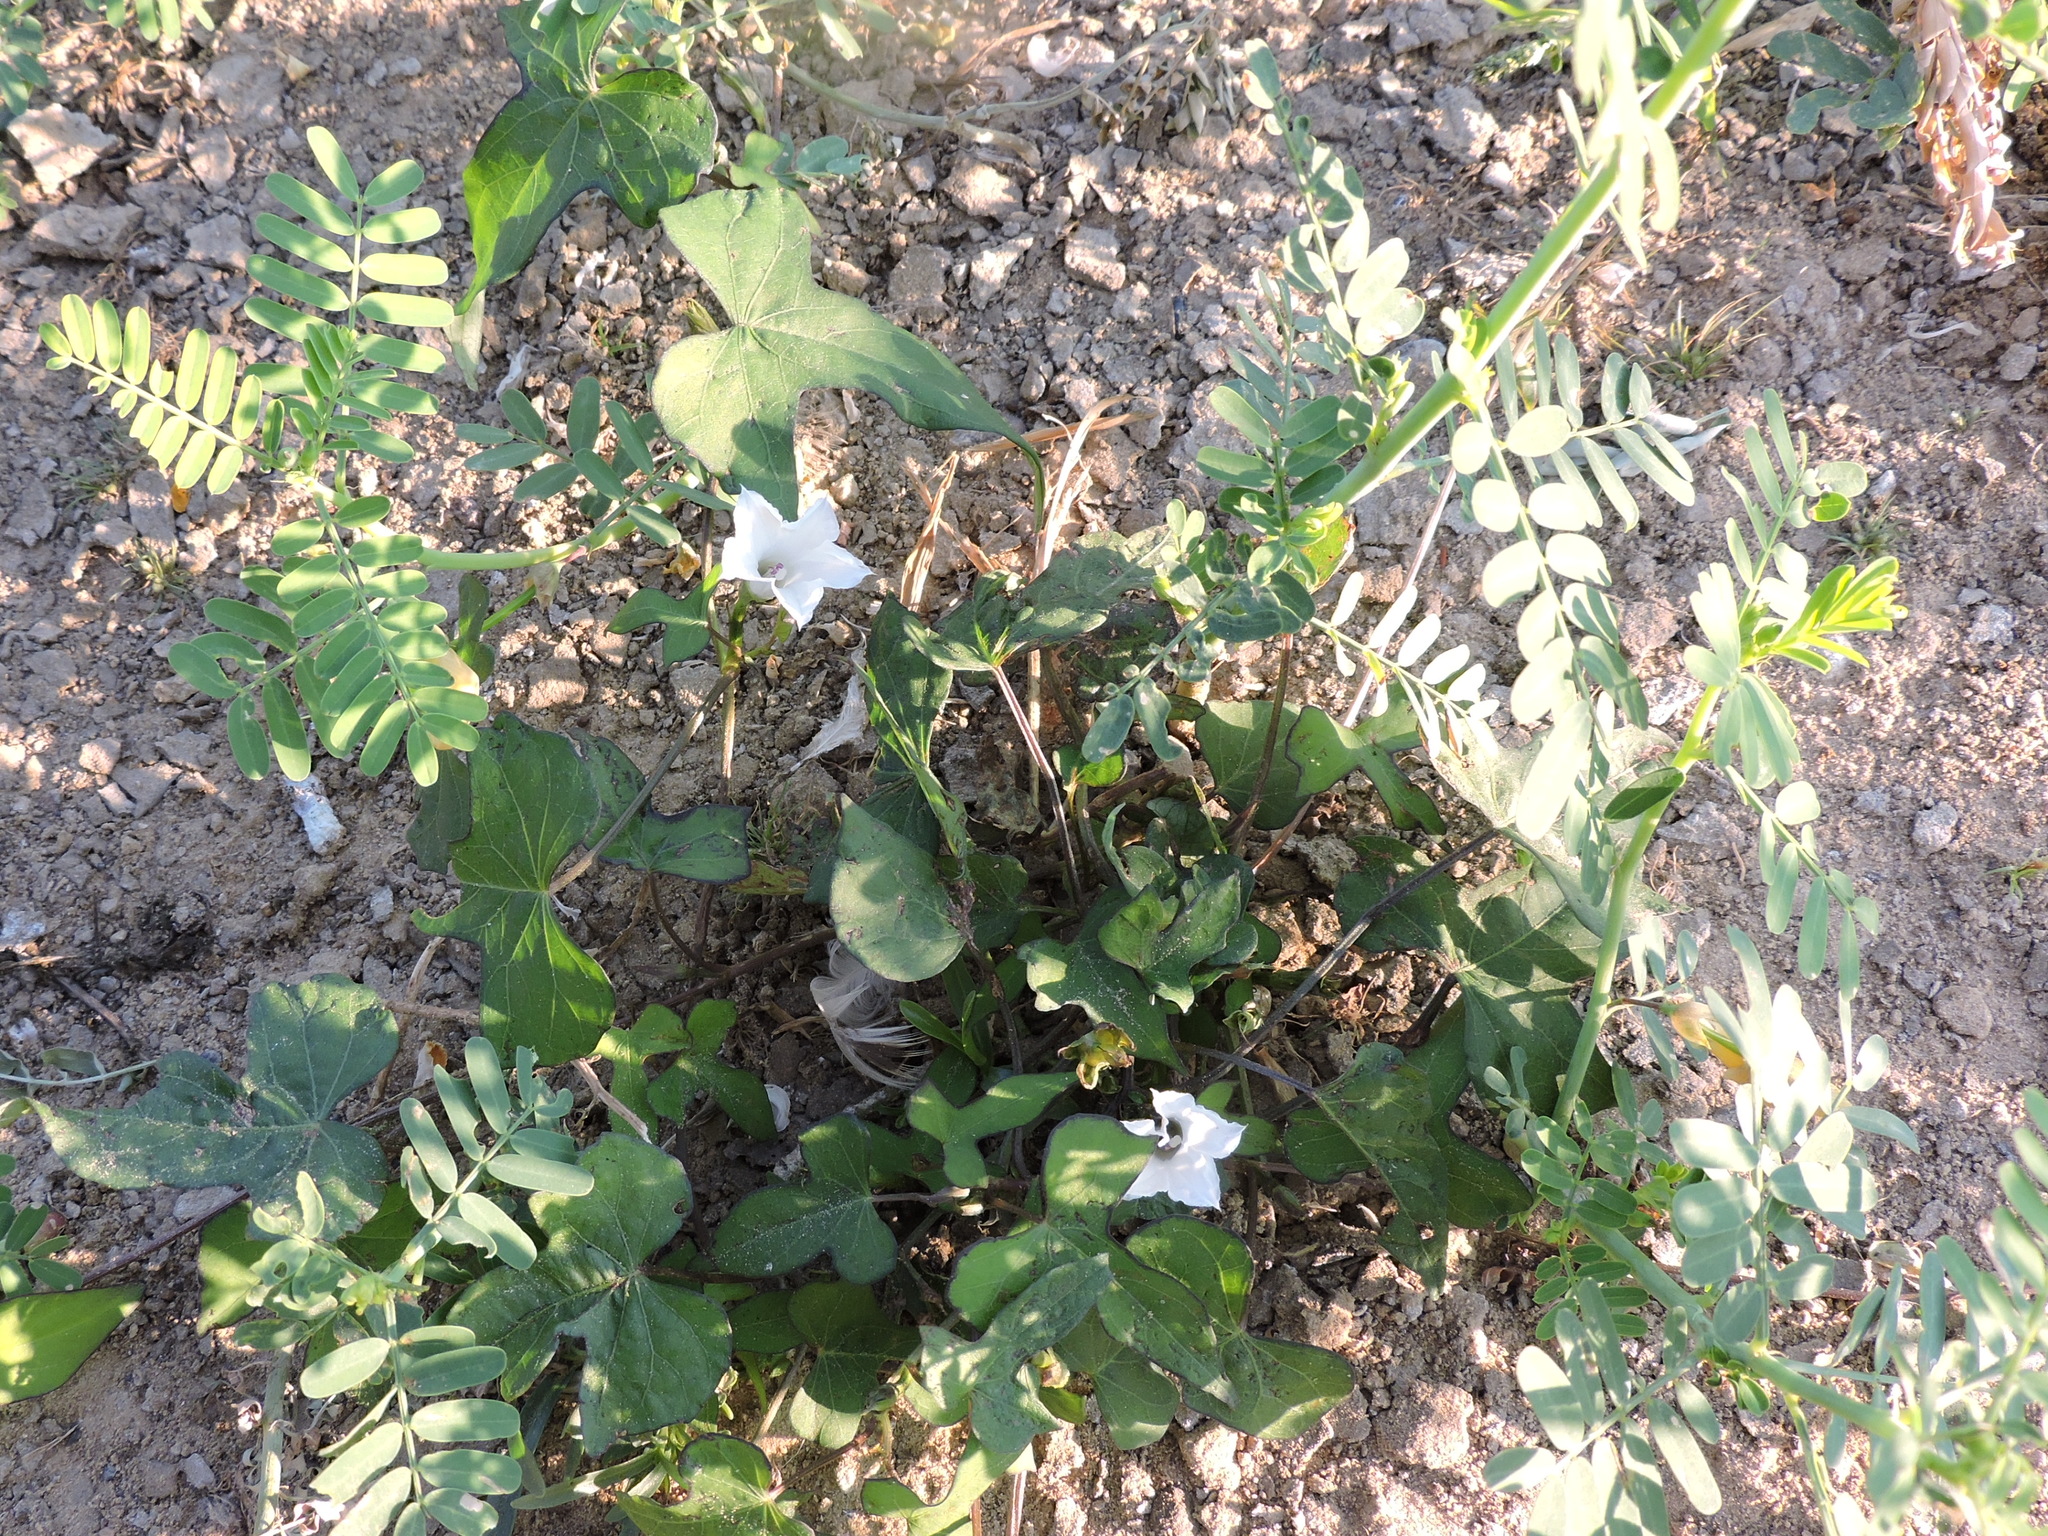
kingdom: Plantae
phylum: Tracheophyta
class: Magnoliopsida
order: Solanales
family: Convolvulaceae
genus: Ipomoea
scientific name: Ipomoea lacunosa
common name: White morning-glory
